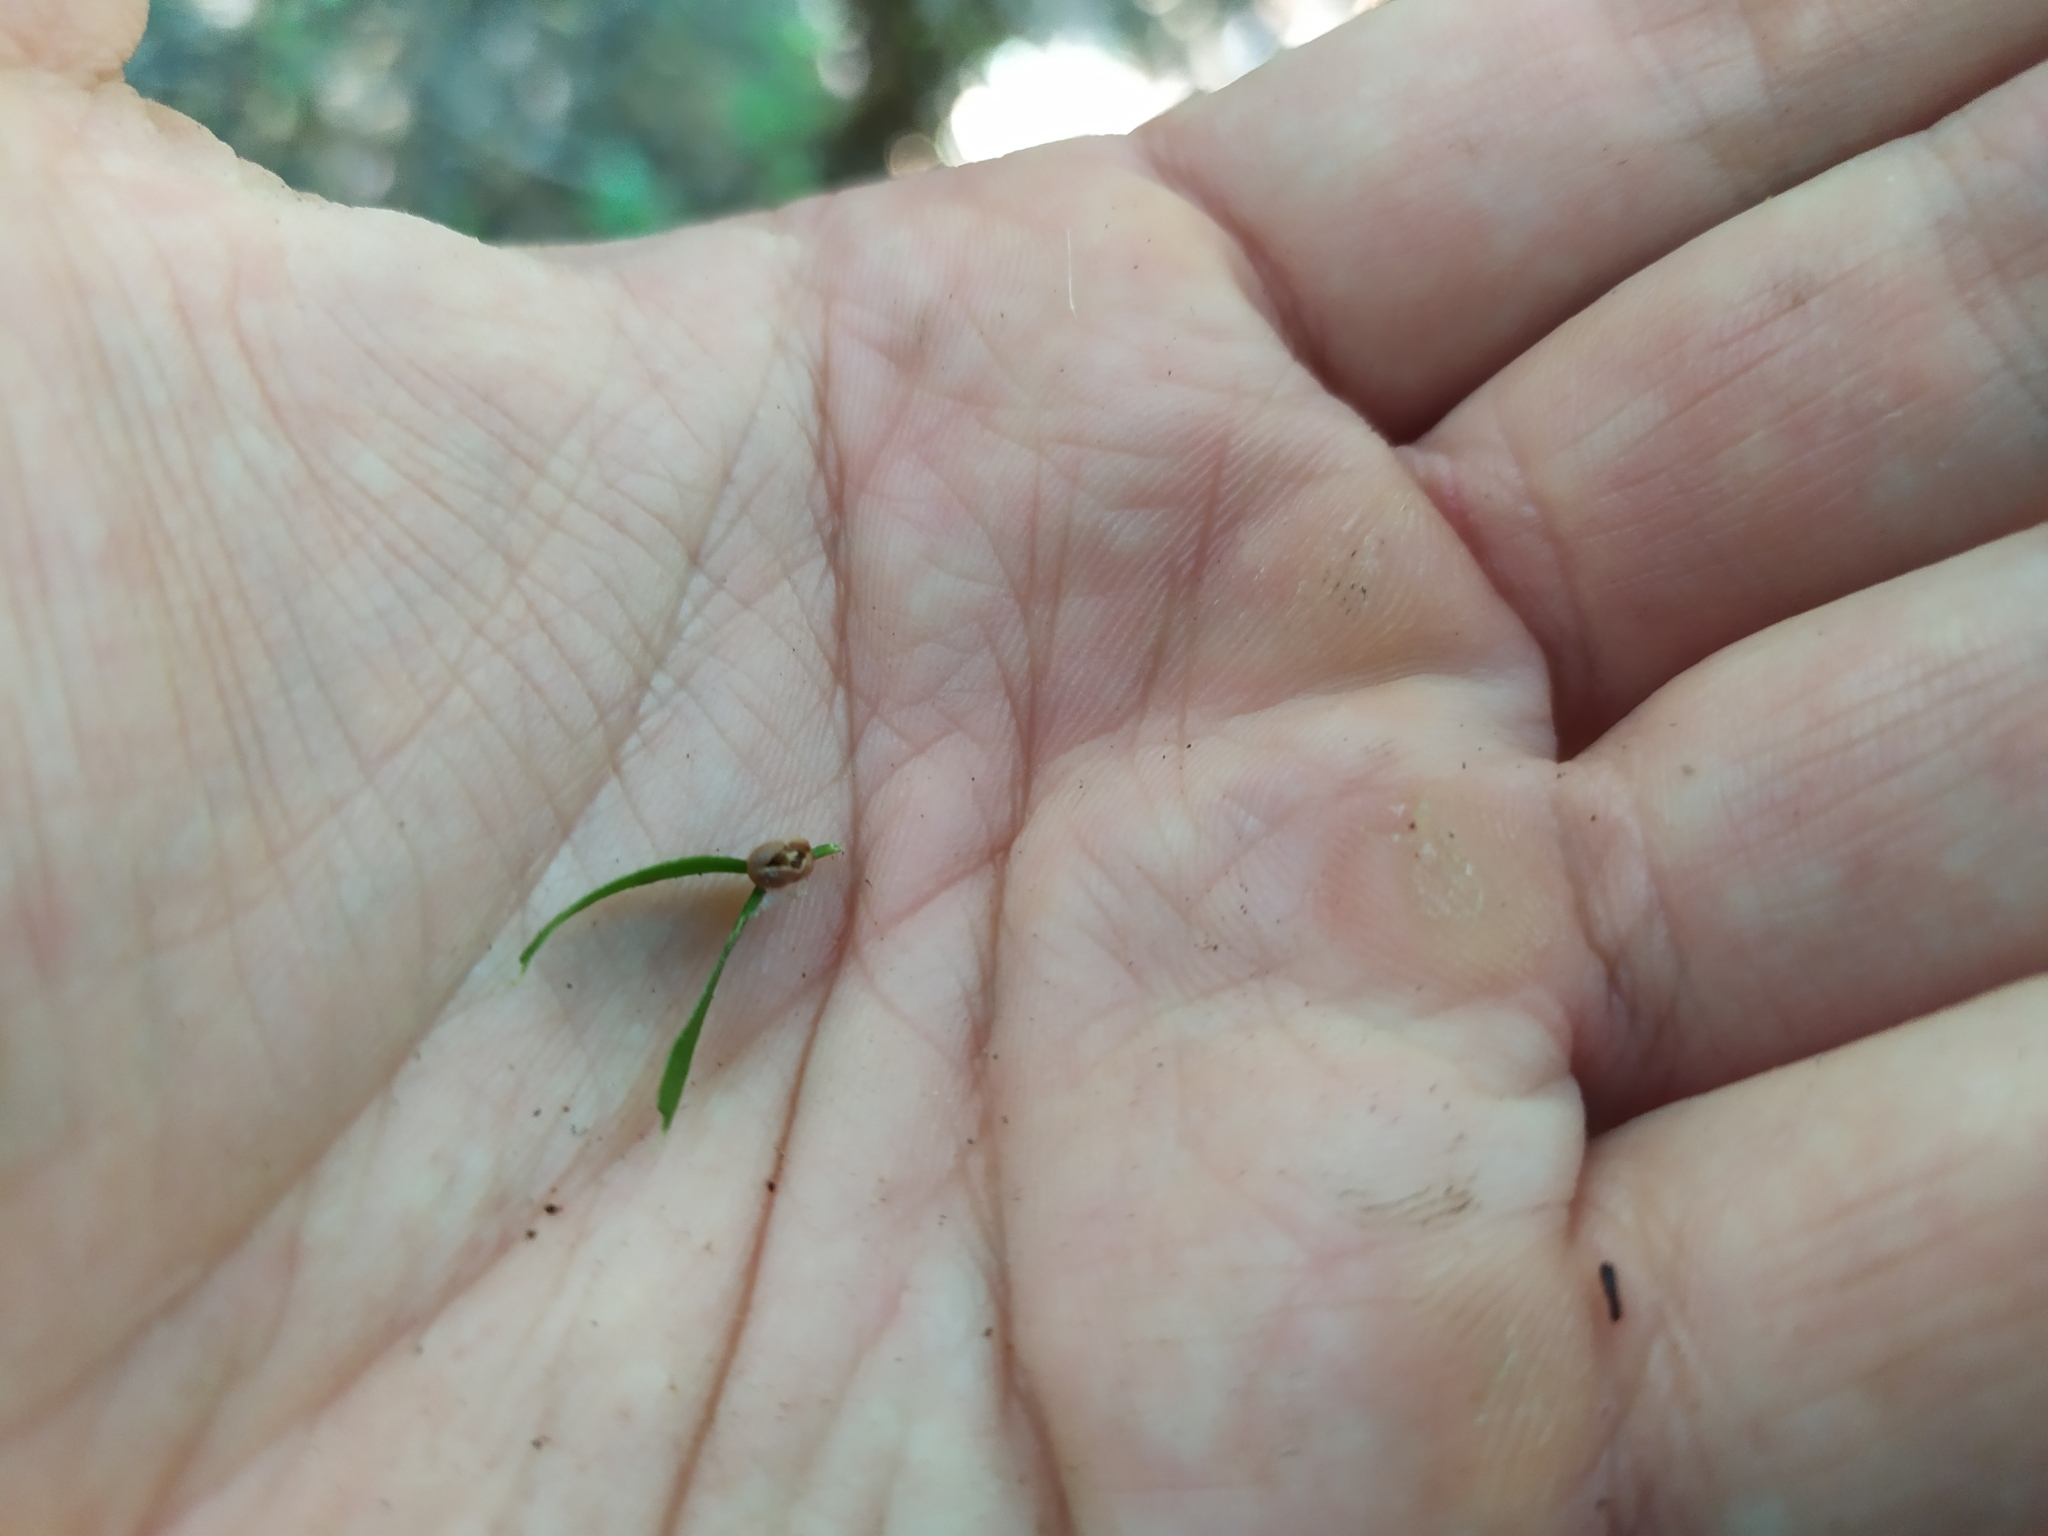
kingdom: Plantae
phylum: Tracheophyta
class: Polypodiopsida
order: Psilotales
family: Psilotaceae
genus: Tmesipteris
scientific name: Tmesipteris sigmatifolia
